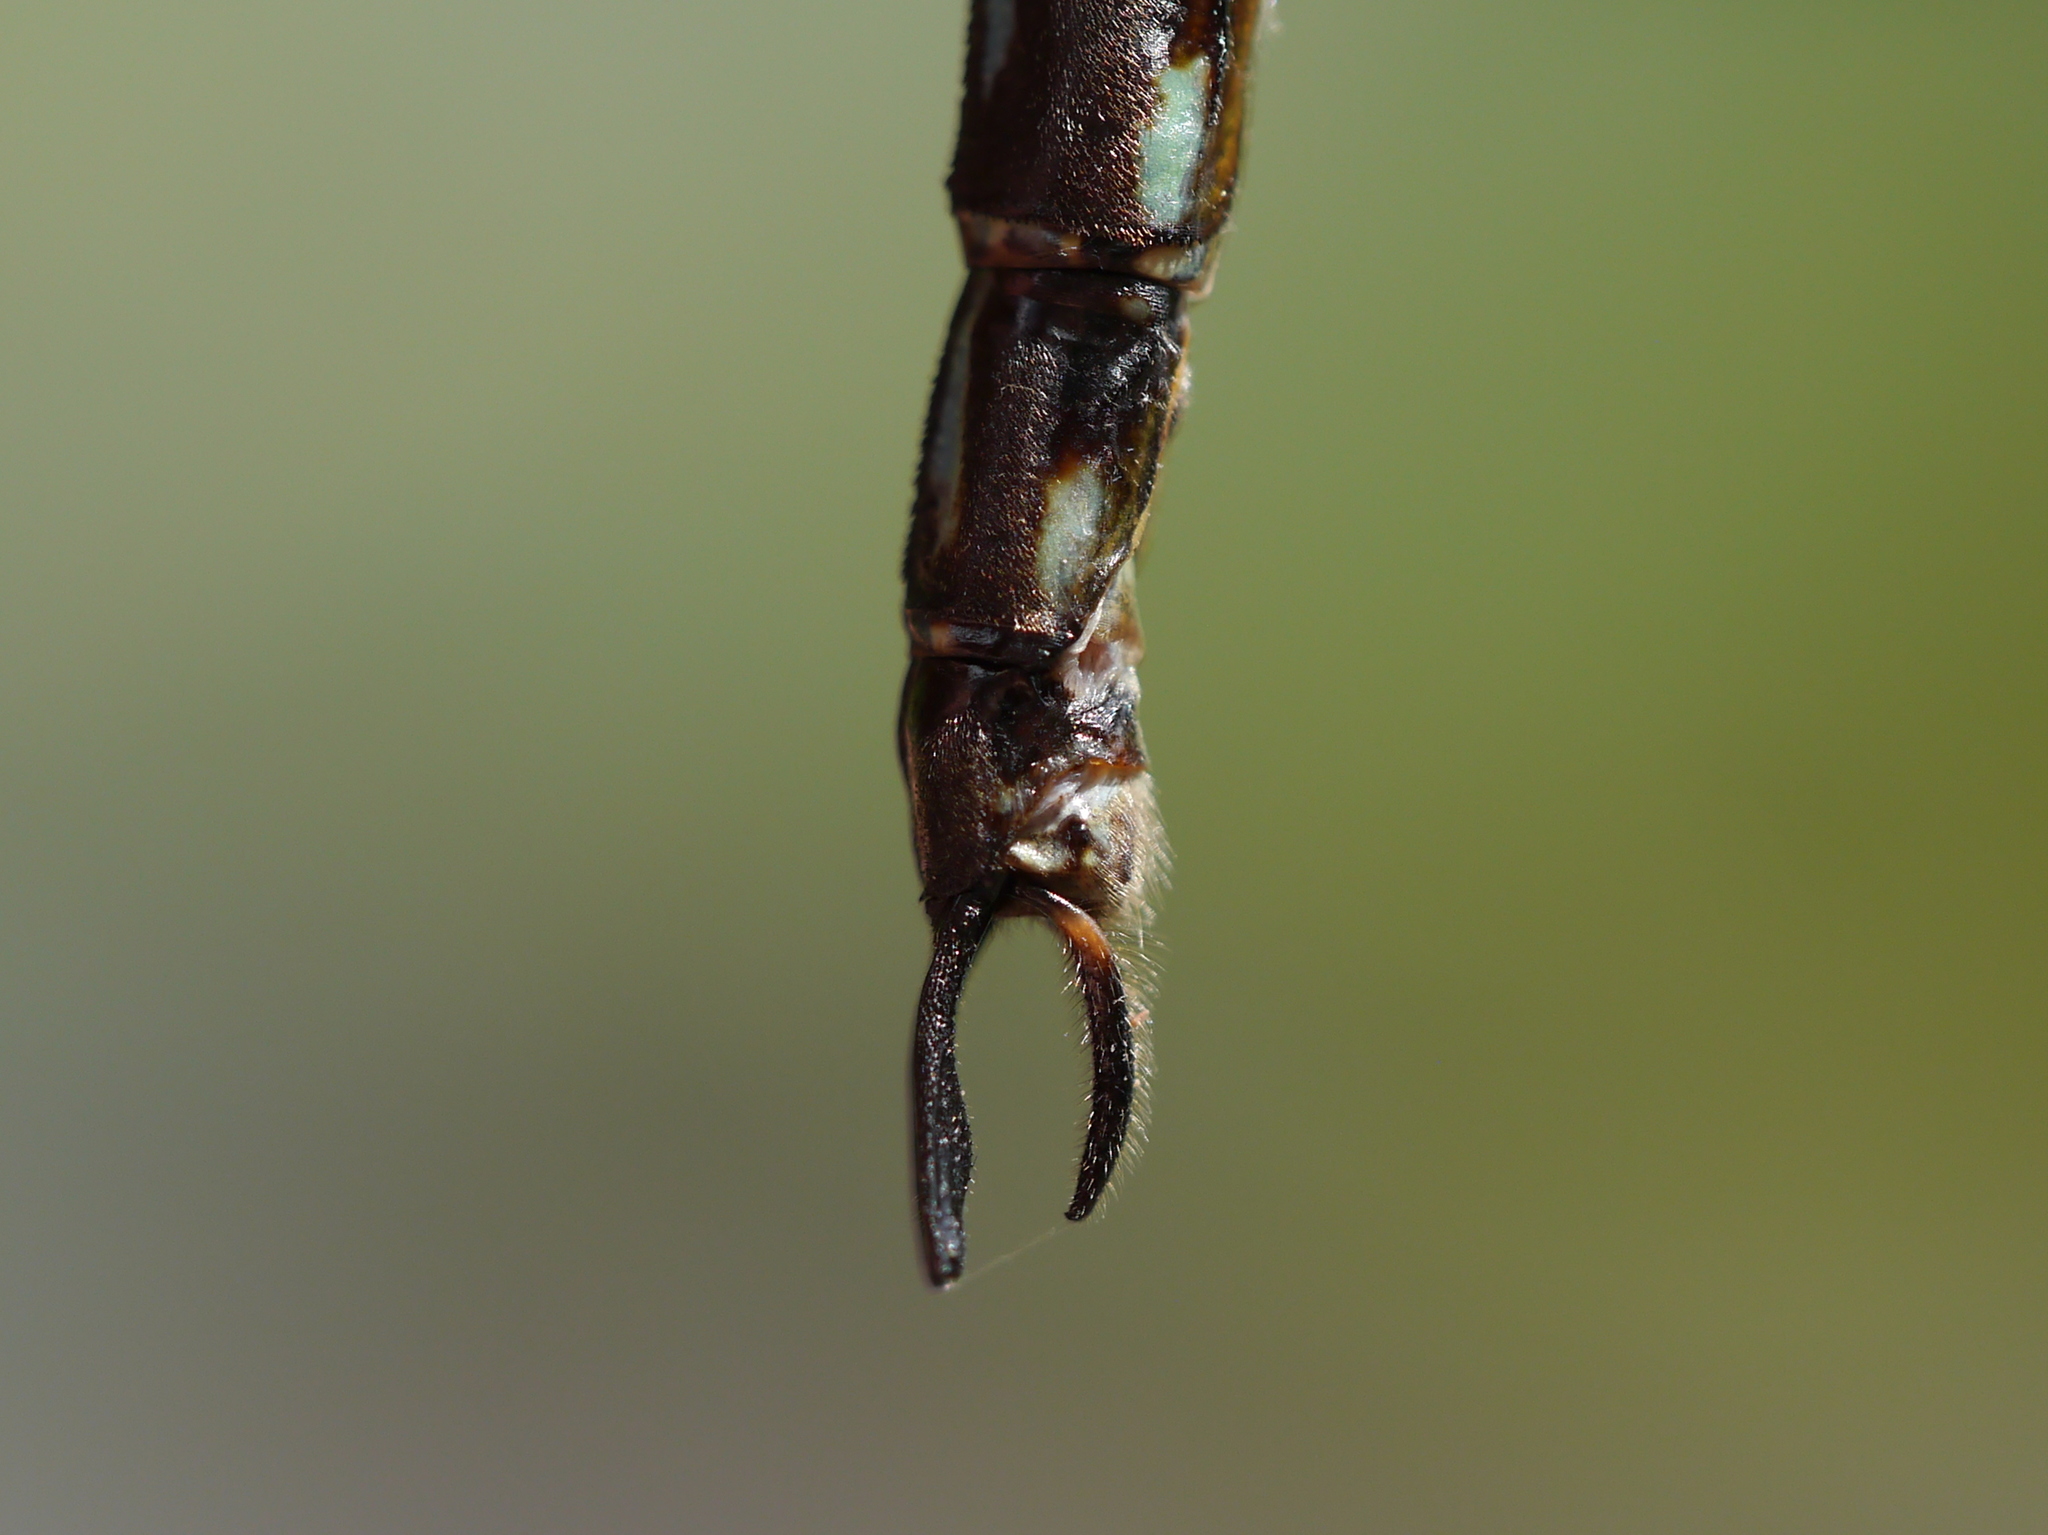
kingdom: Animalia
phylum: Arthropoda
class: Insecta
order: Odonata
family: Aeshnidae
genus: Nasiaeschna
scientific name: Nasiaeschna pentacantha
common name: Cyrano darner
